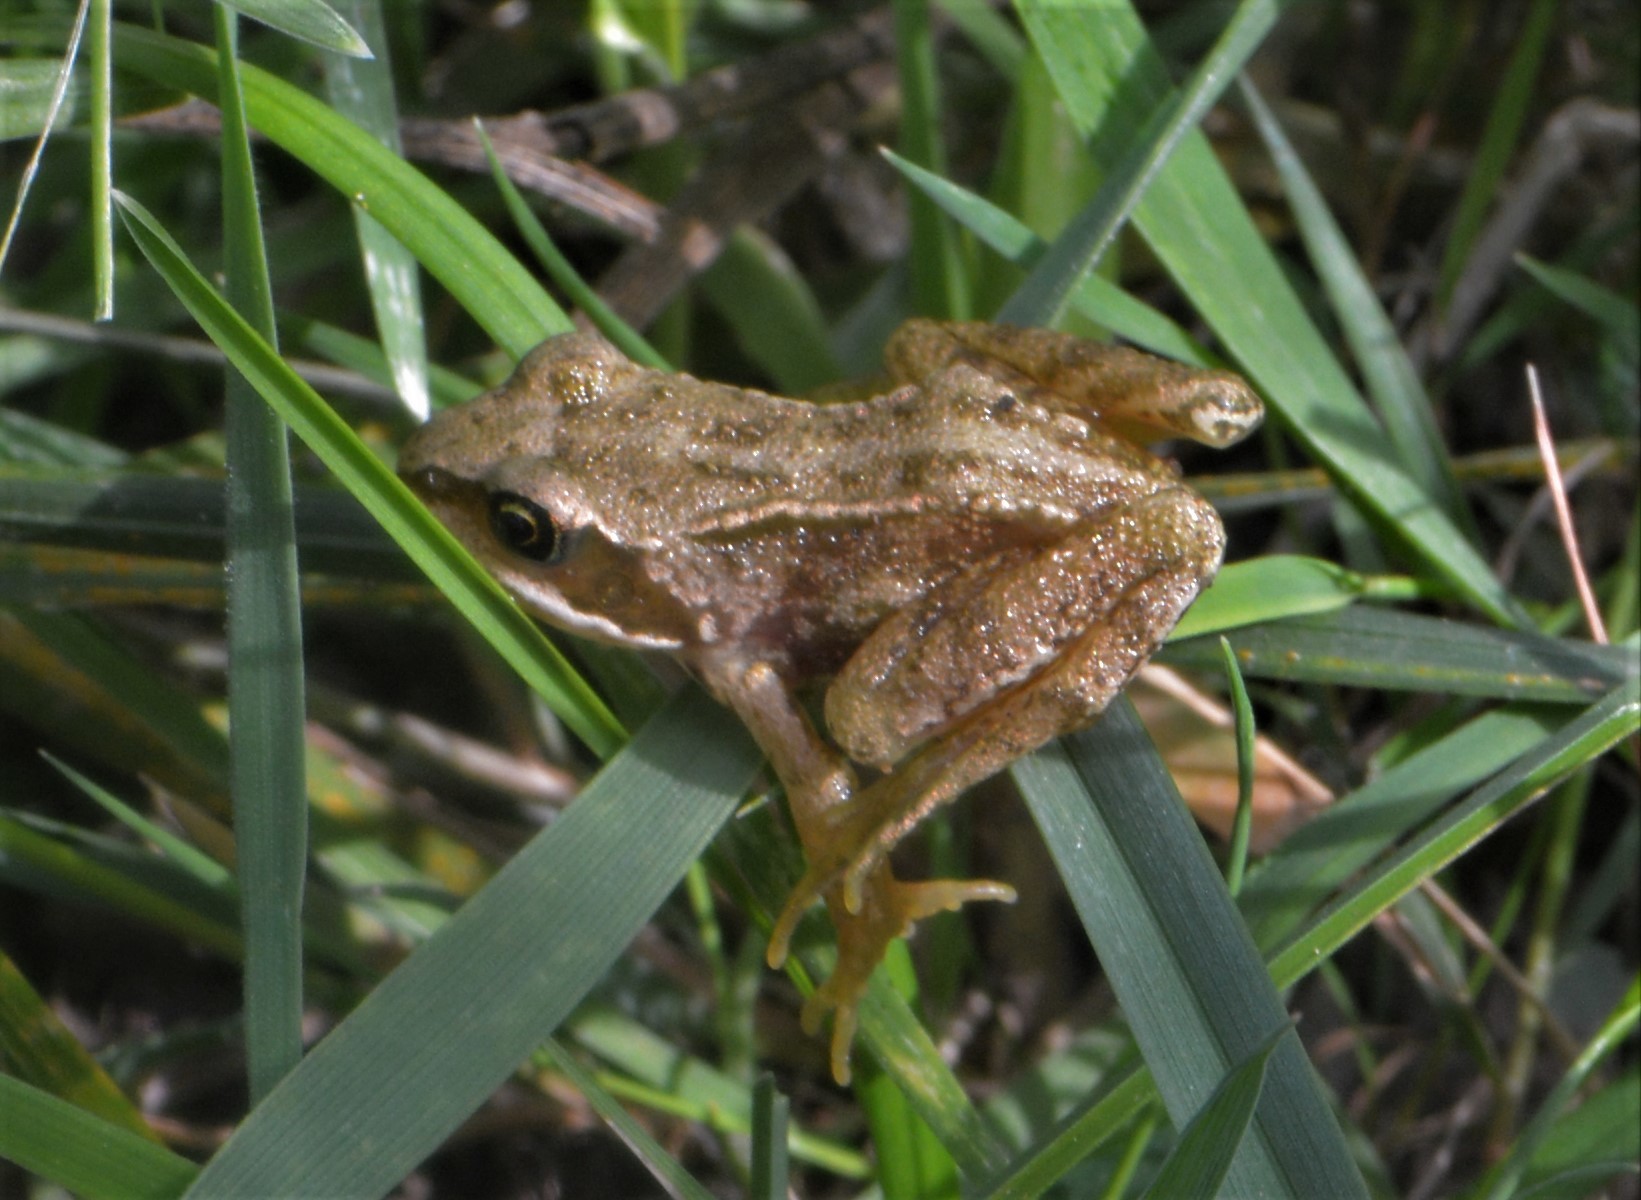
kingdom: Animalia
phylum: Chordata
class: Amphibia
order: Anura
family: Ranidae
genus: Rana
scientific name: Rana temporaria
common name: Common frog
